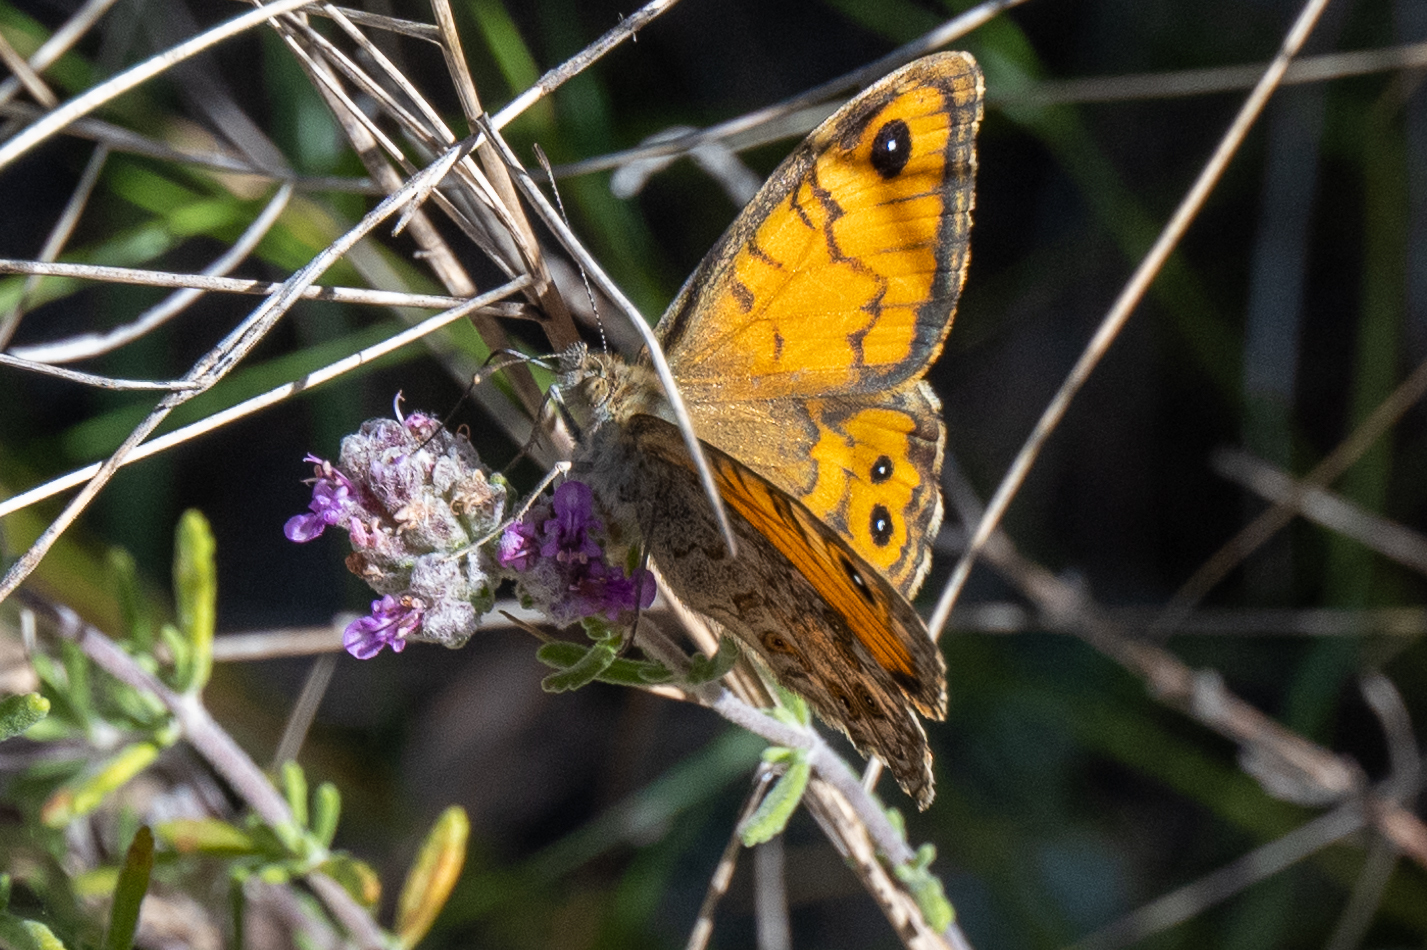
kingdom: Animalia
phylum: Arthropoda
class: Insecta
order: Lepidoptera
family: Nymphalidae
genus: Pararge
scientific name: Pararge Lasiommata megera
